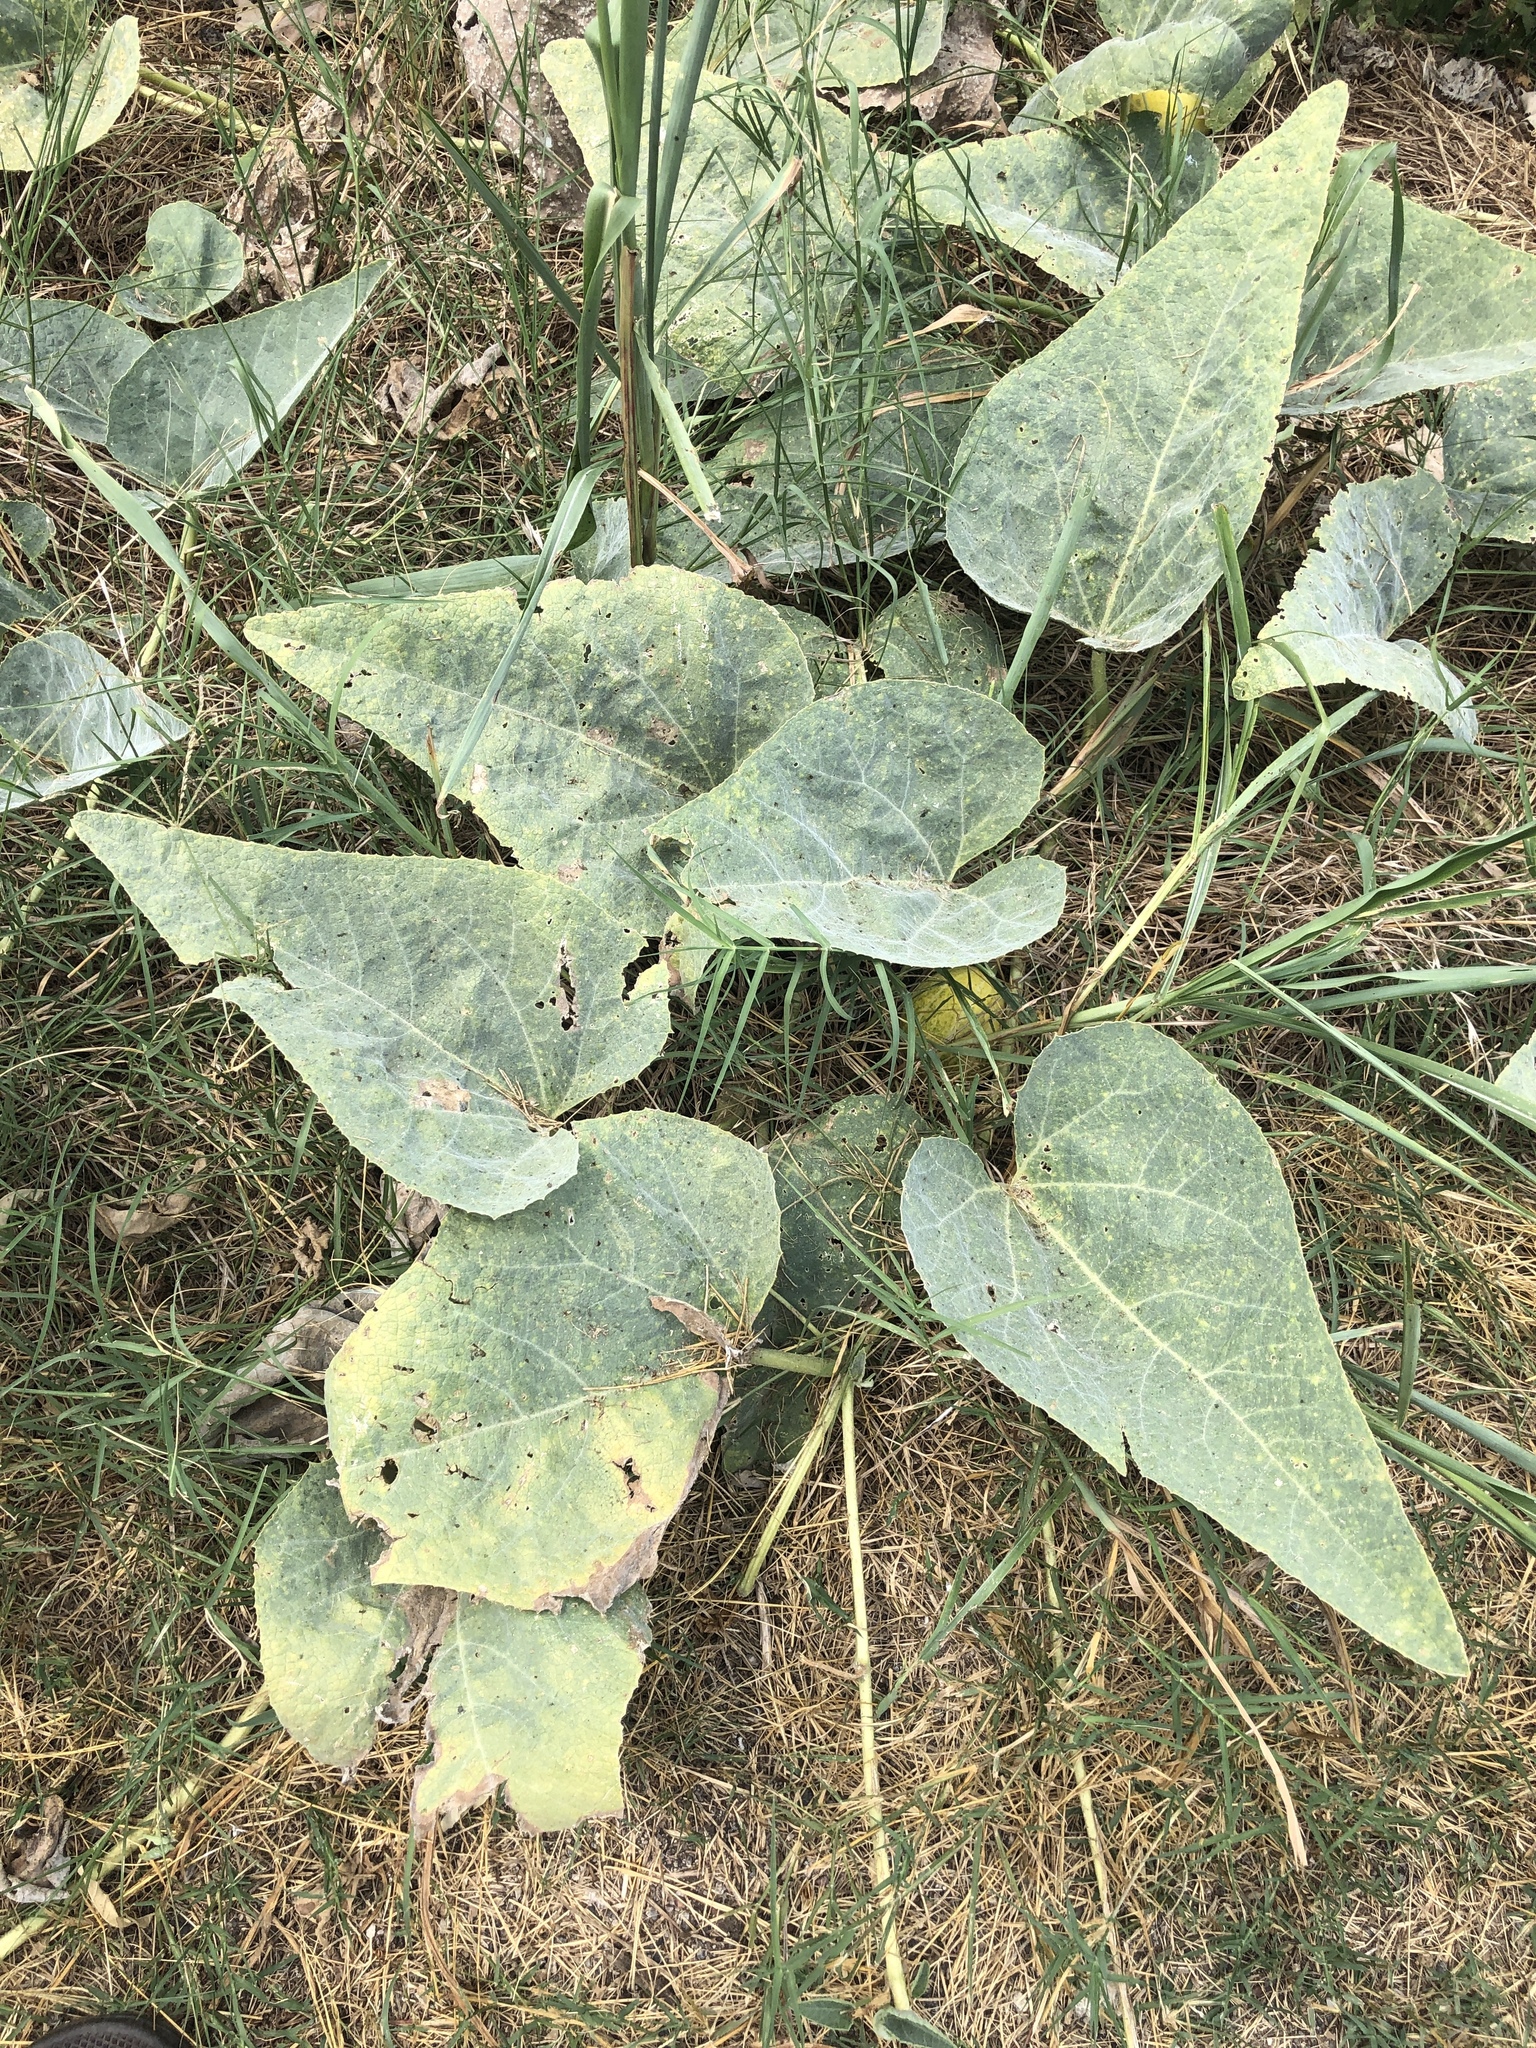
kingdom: Plantae
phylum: Tracheophyta
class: Magnoliopsida
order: Cucurbitales
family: Cucurbitaceae
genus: Cucurbita
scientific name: Cucurbita foetidissima
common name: Buffalo gourd
